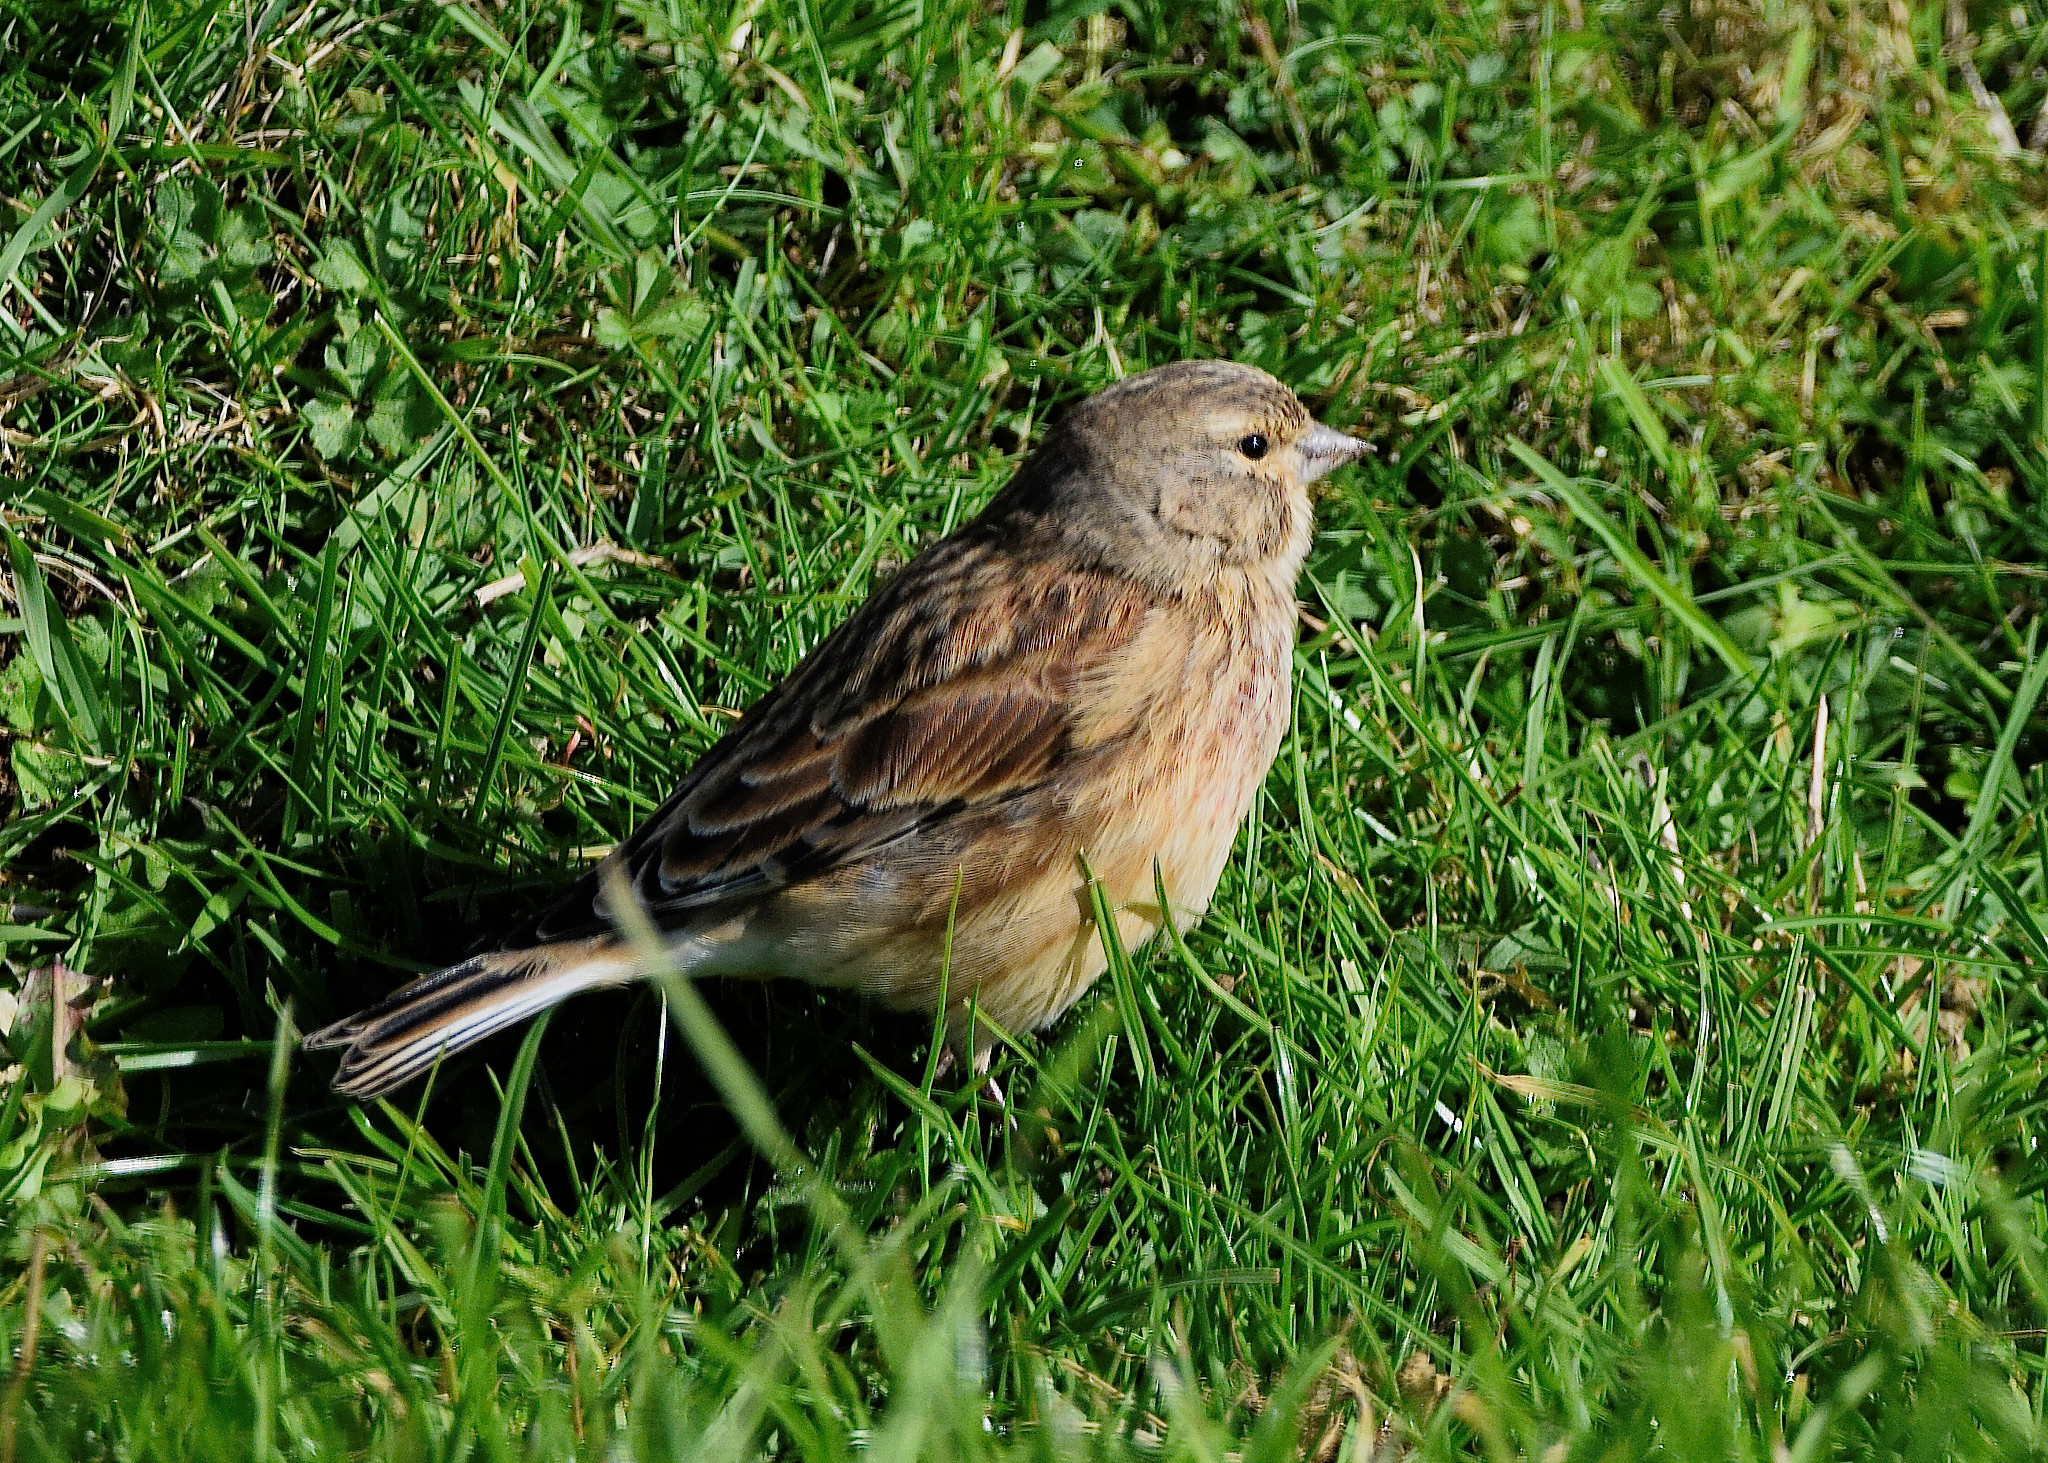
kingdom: Animalia
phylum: Chordata
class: Aves
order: Passeriformes
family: Fringillidae
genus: Linaria
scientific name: Linaria cannabina
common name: Common linnet
